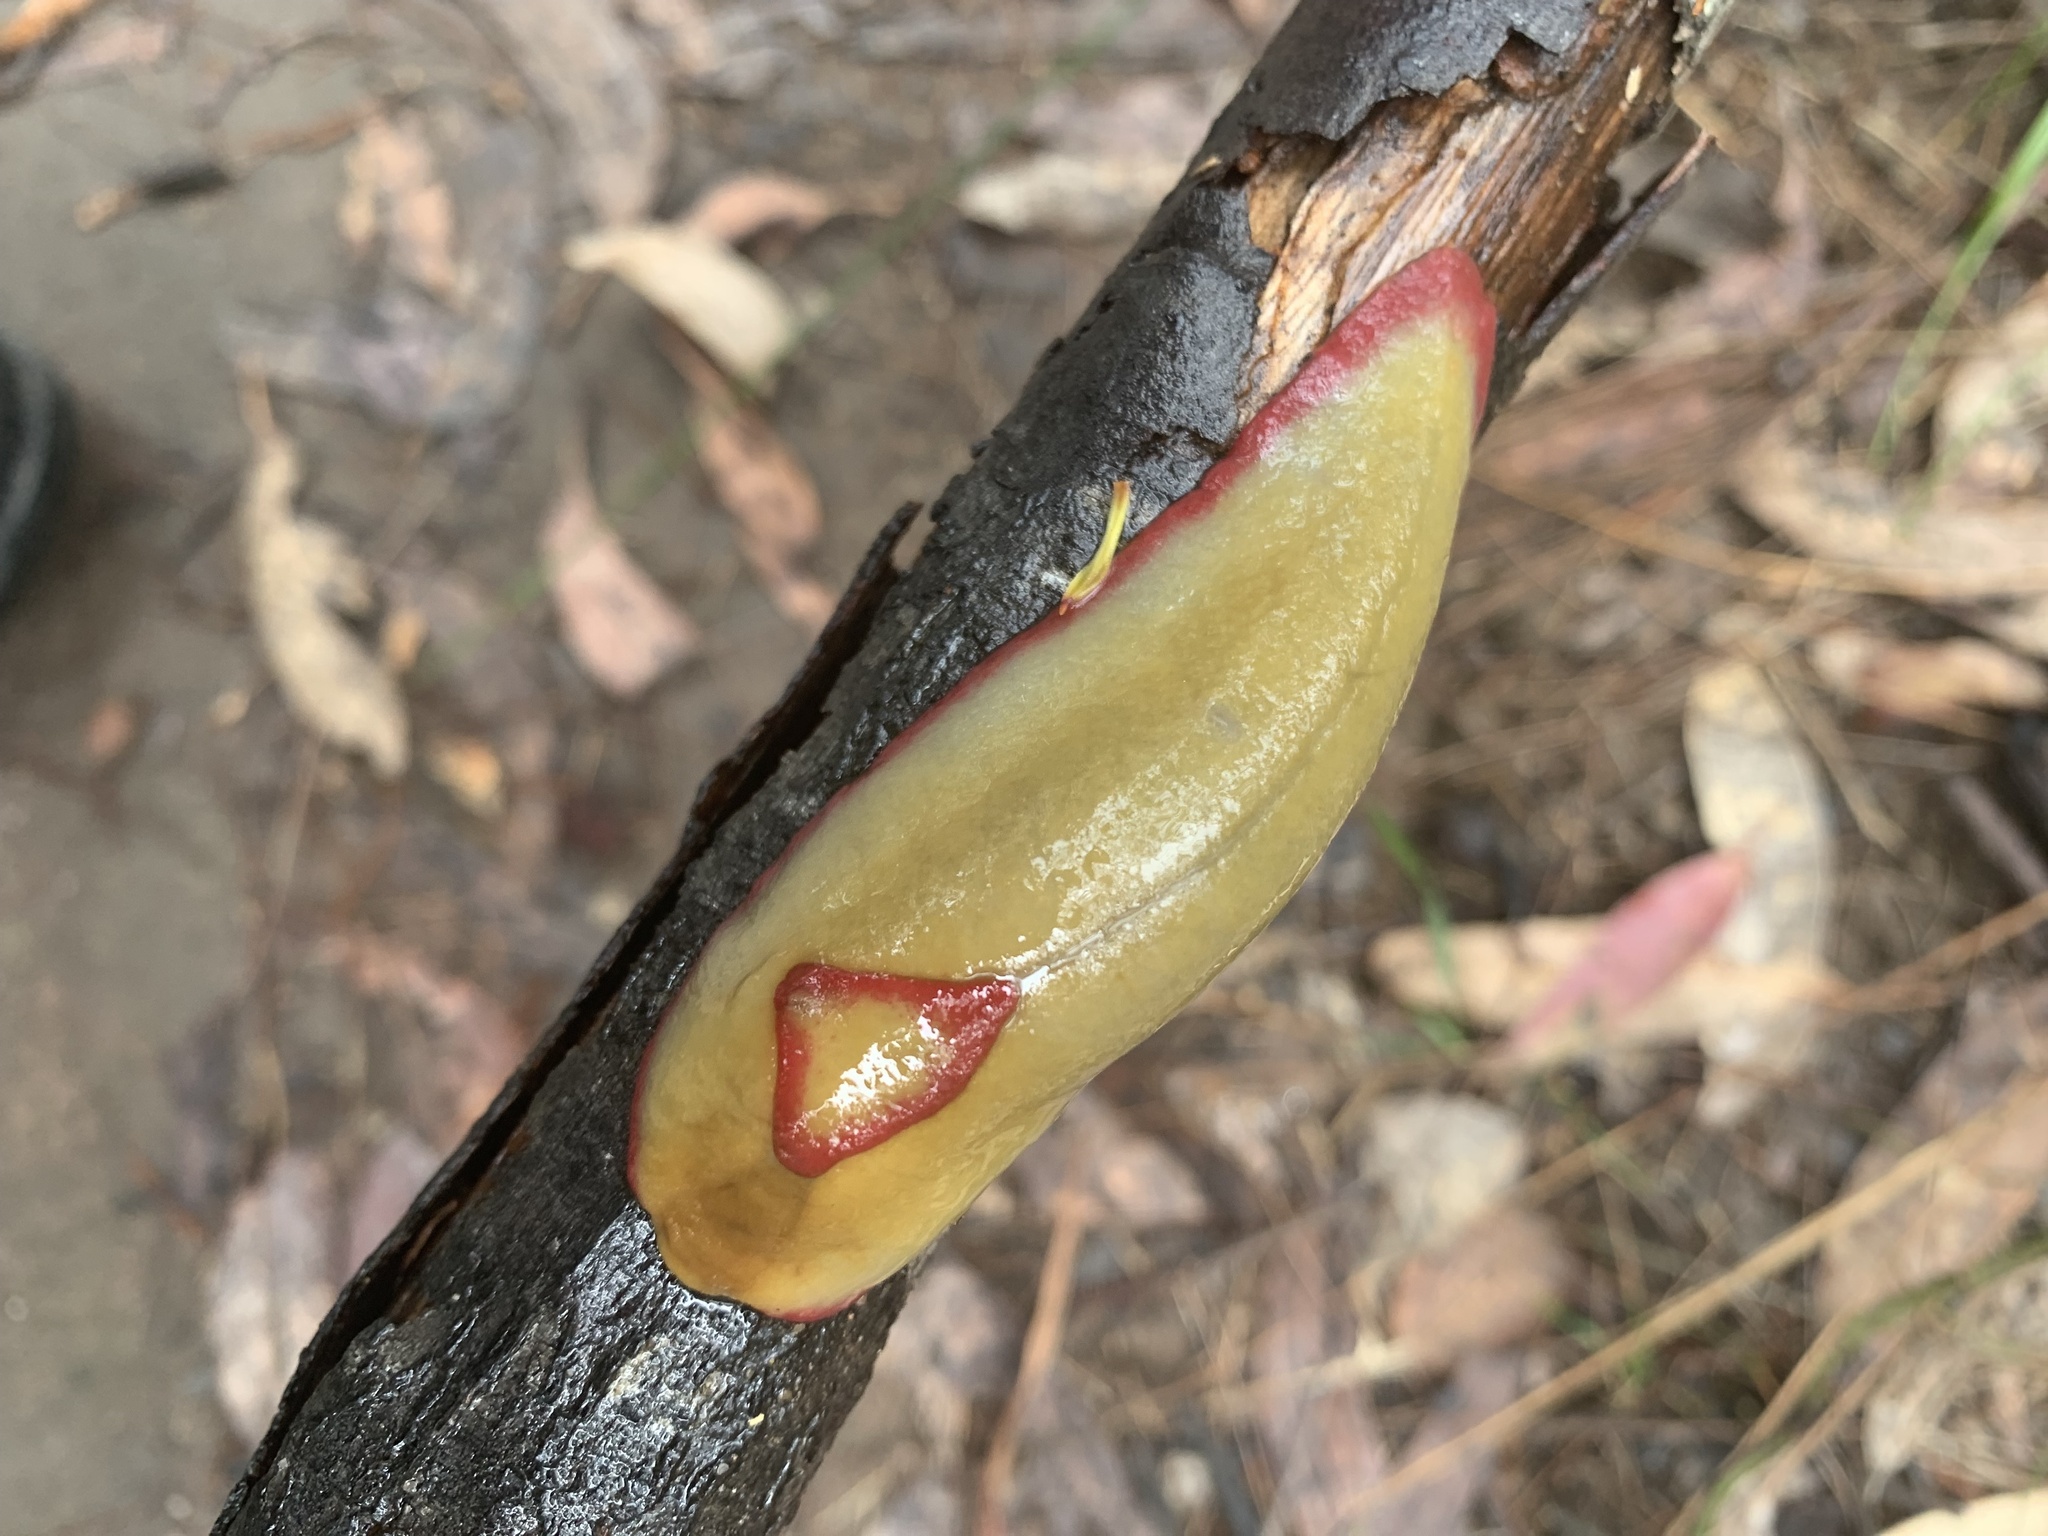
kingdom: Animalia
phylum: Mollusca
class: Gastropoda
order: Stylommatophora
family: Athoracophoridae
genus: Triboniophorus
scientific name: Triboniophorus graeffei
